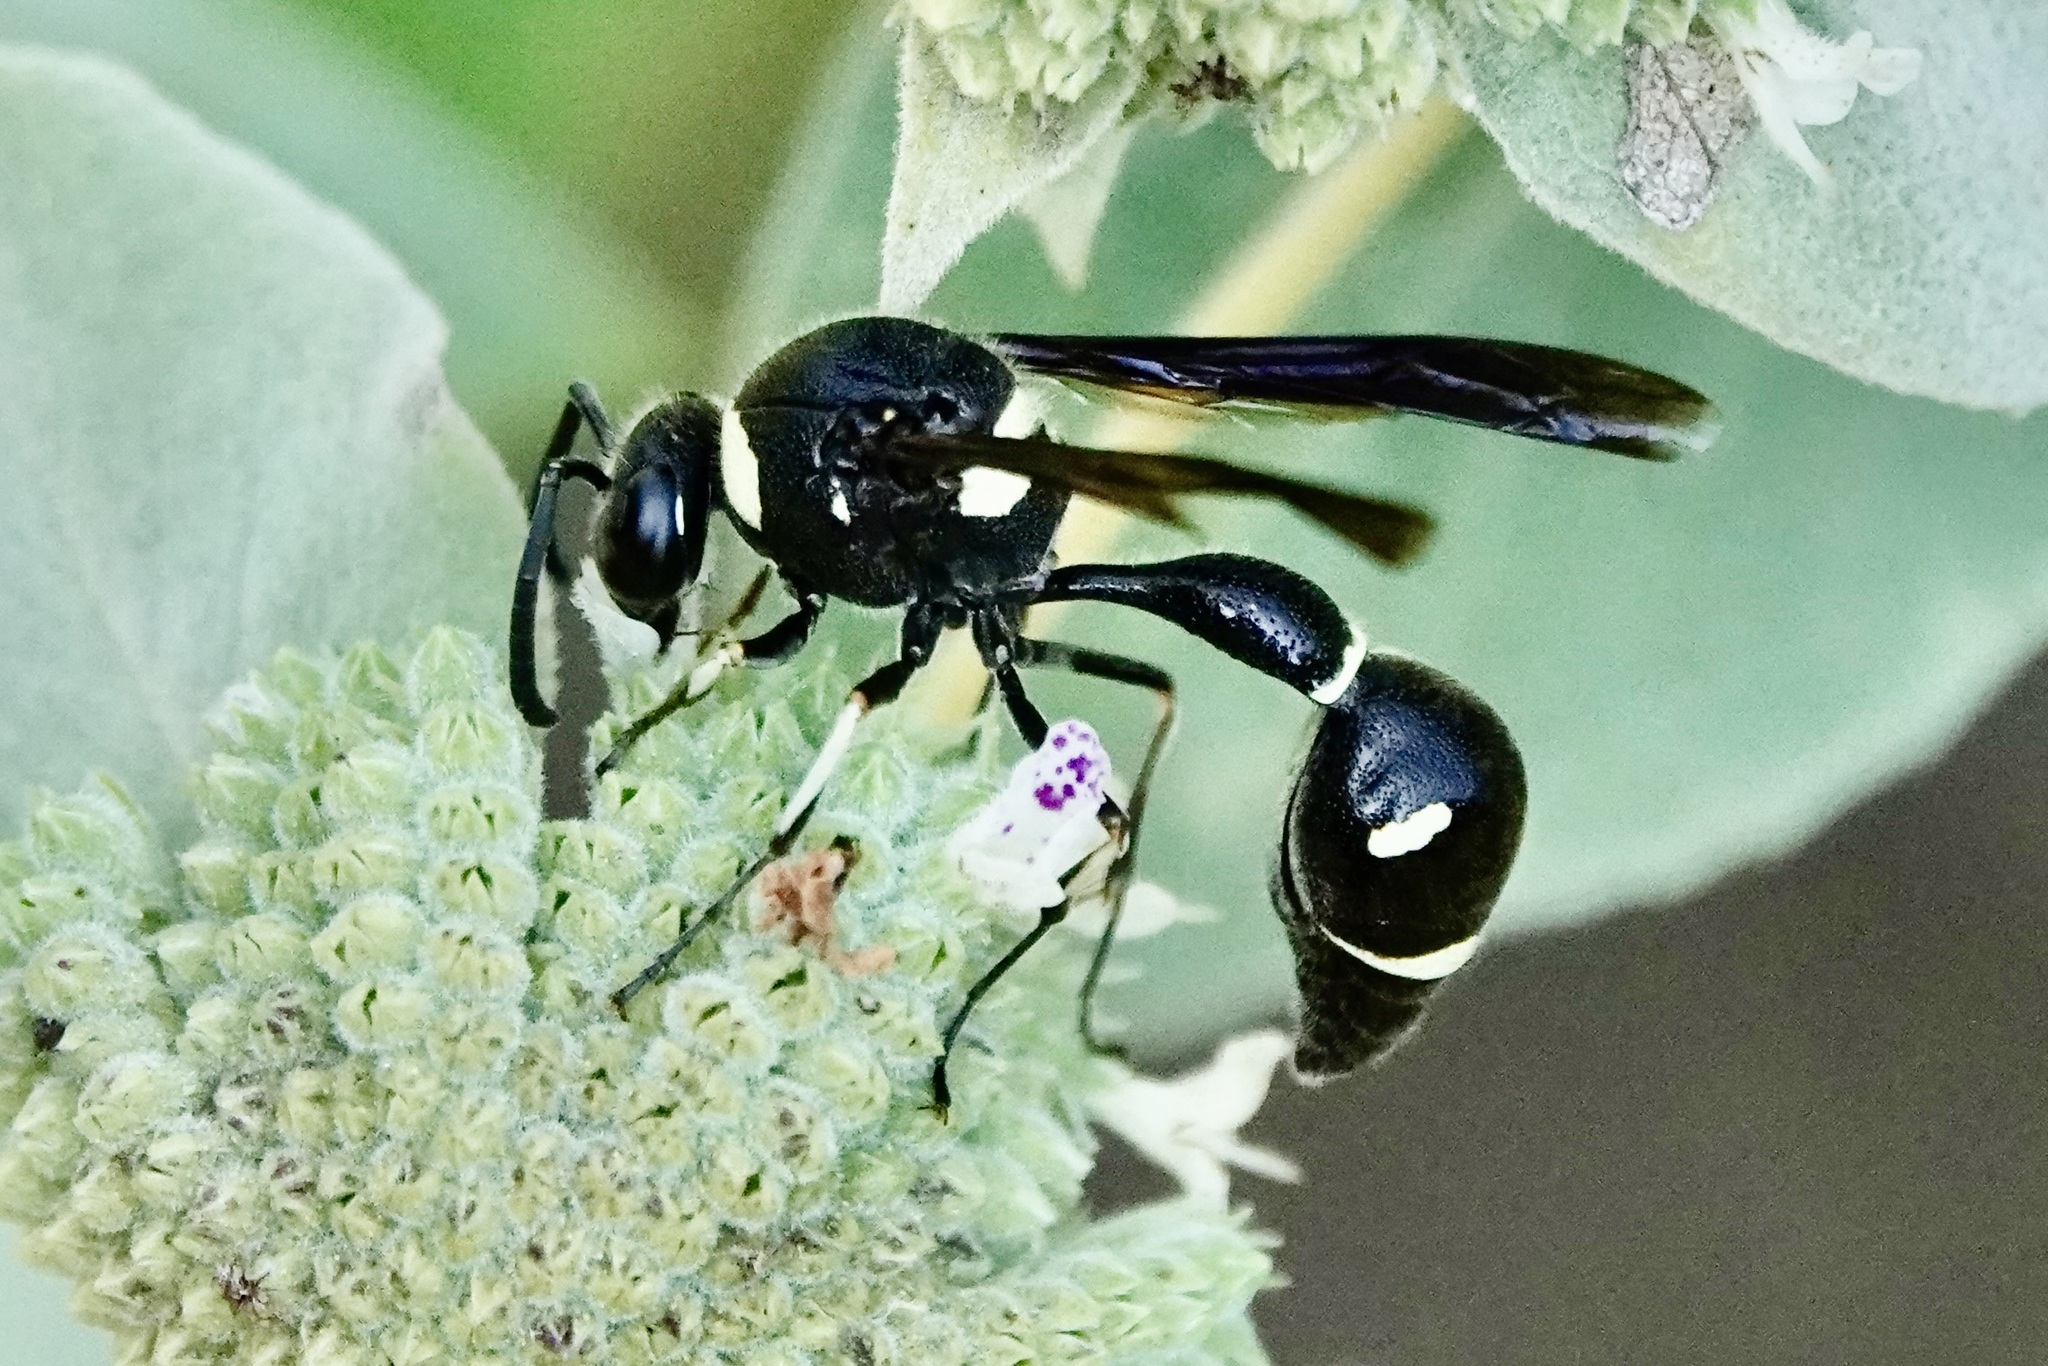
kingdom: Animalia
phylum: Arthropoda
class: Insecta
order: Hymenoptera
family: Vespidae
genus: Eumenes
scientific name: Eumenes fraternus
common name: Fraternal potter wasp
